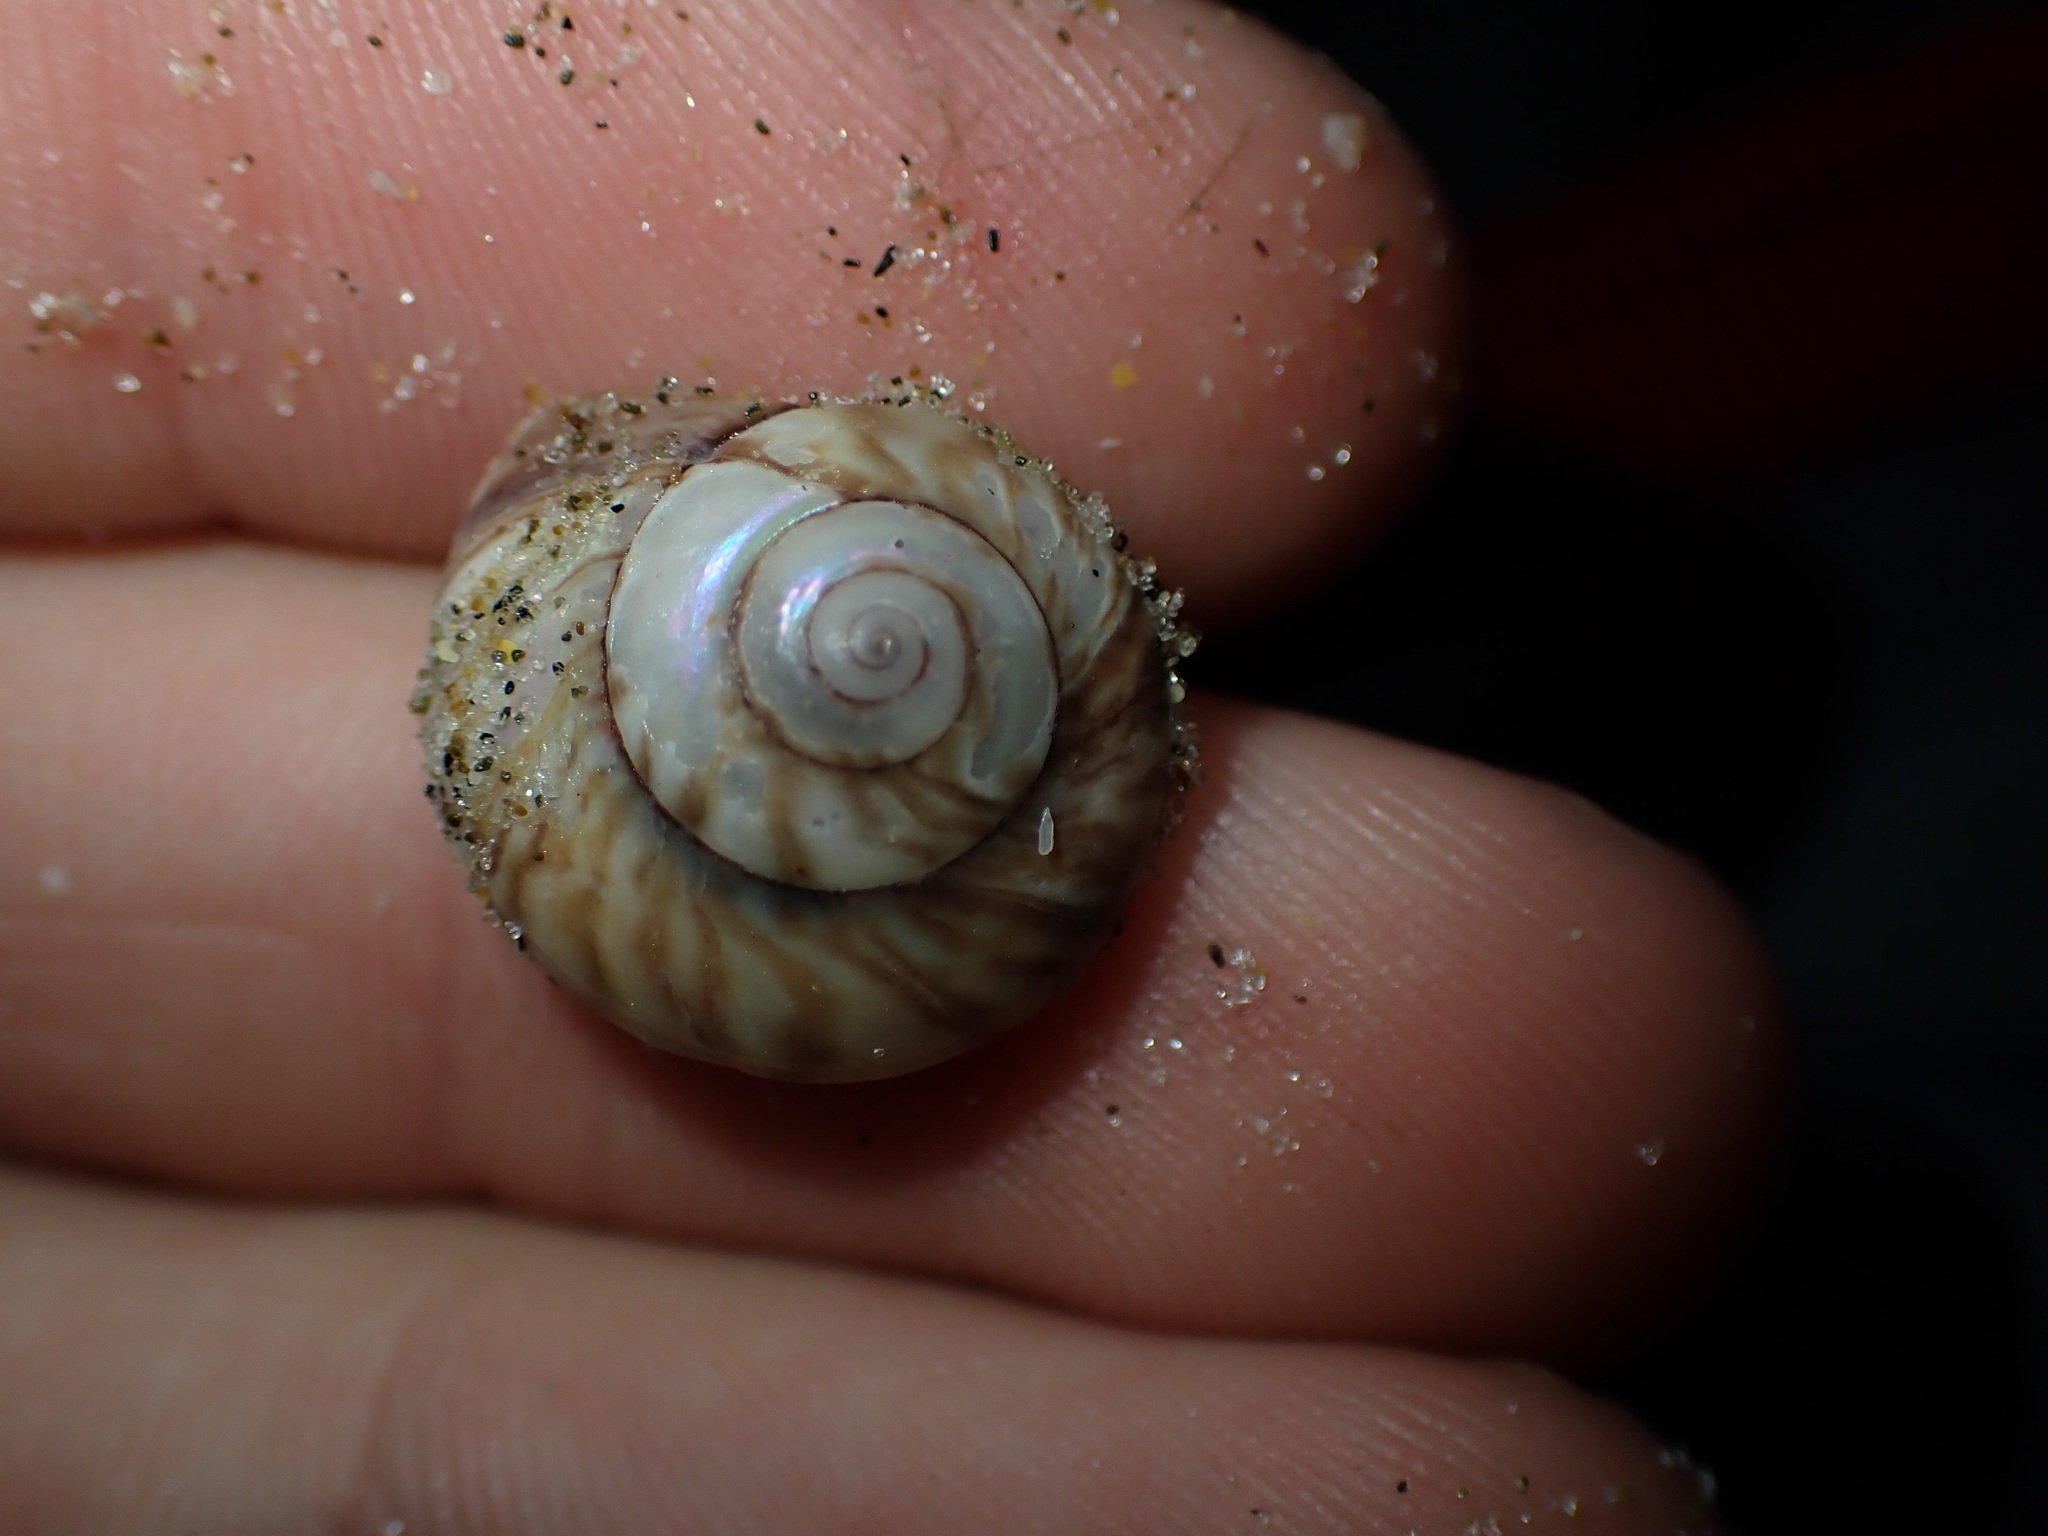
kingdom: Animalia
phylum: Mollusca
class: Gastropoda
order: Trochida
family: Trochidae
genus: Zethalia
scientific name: Zethalia zelandica
